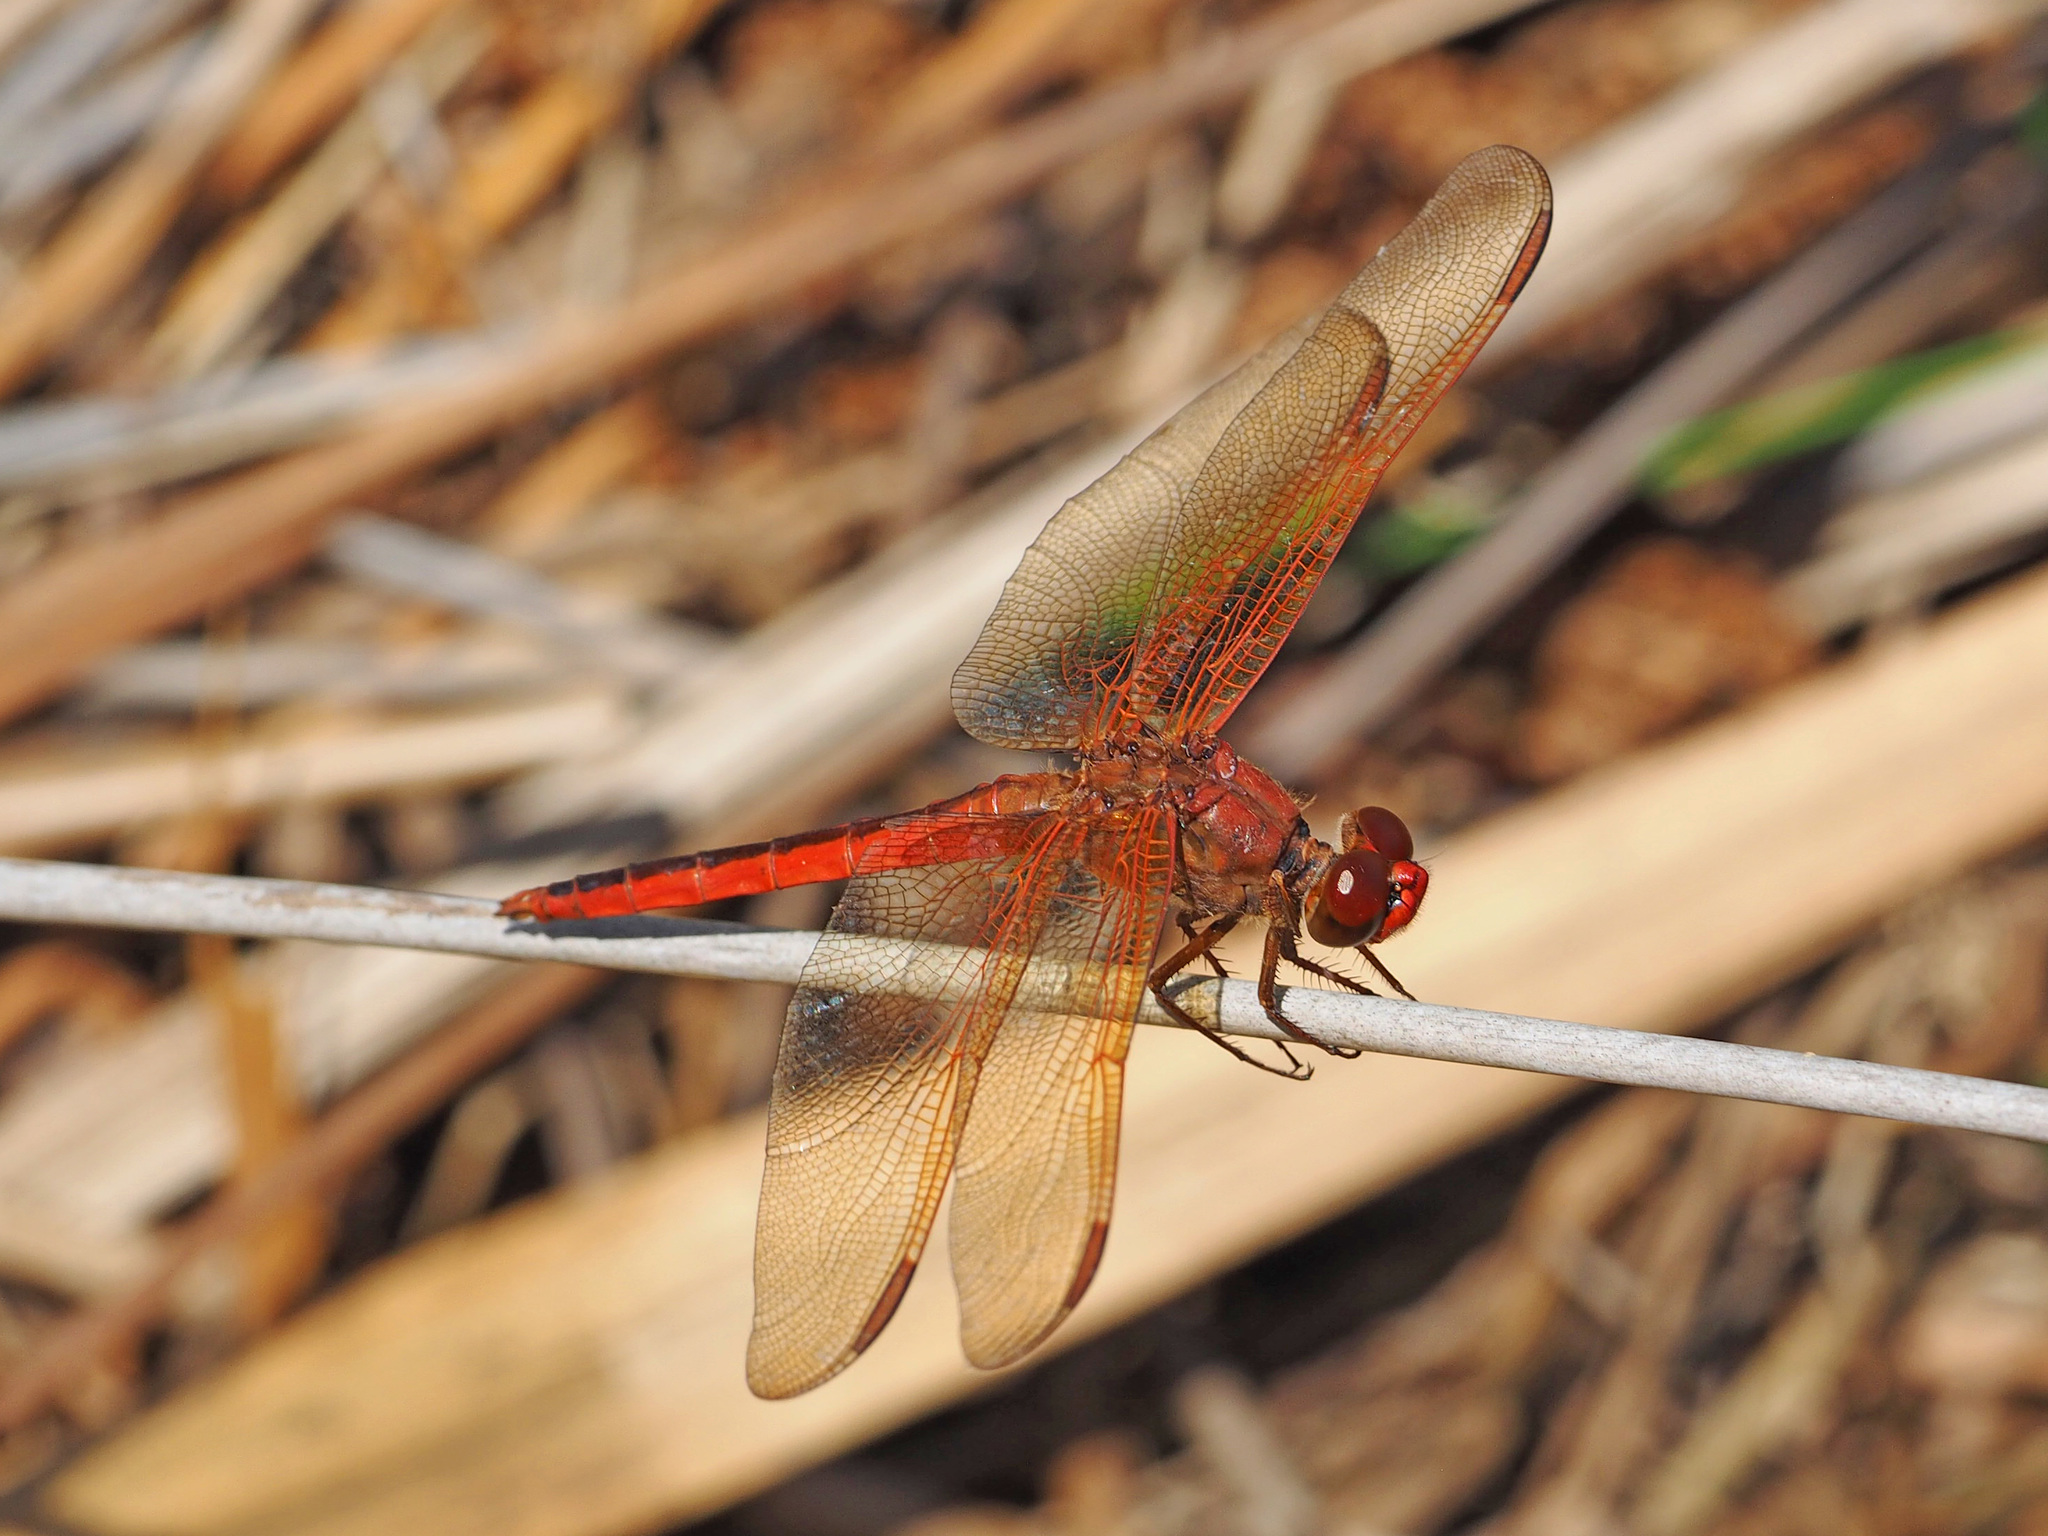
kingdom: Animalia
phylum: Arthropoda
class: Insecta
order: Odonata
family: Libellulidae
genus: Libellula
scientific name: Libellula needhami
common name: Needham's skimmer
